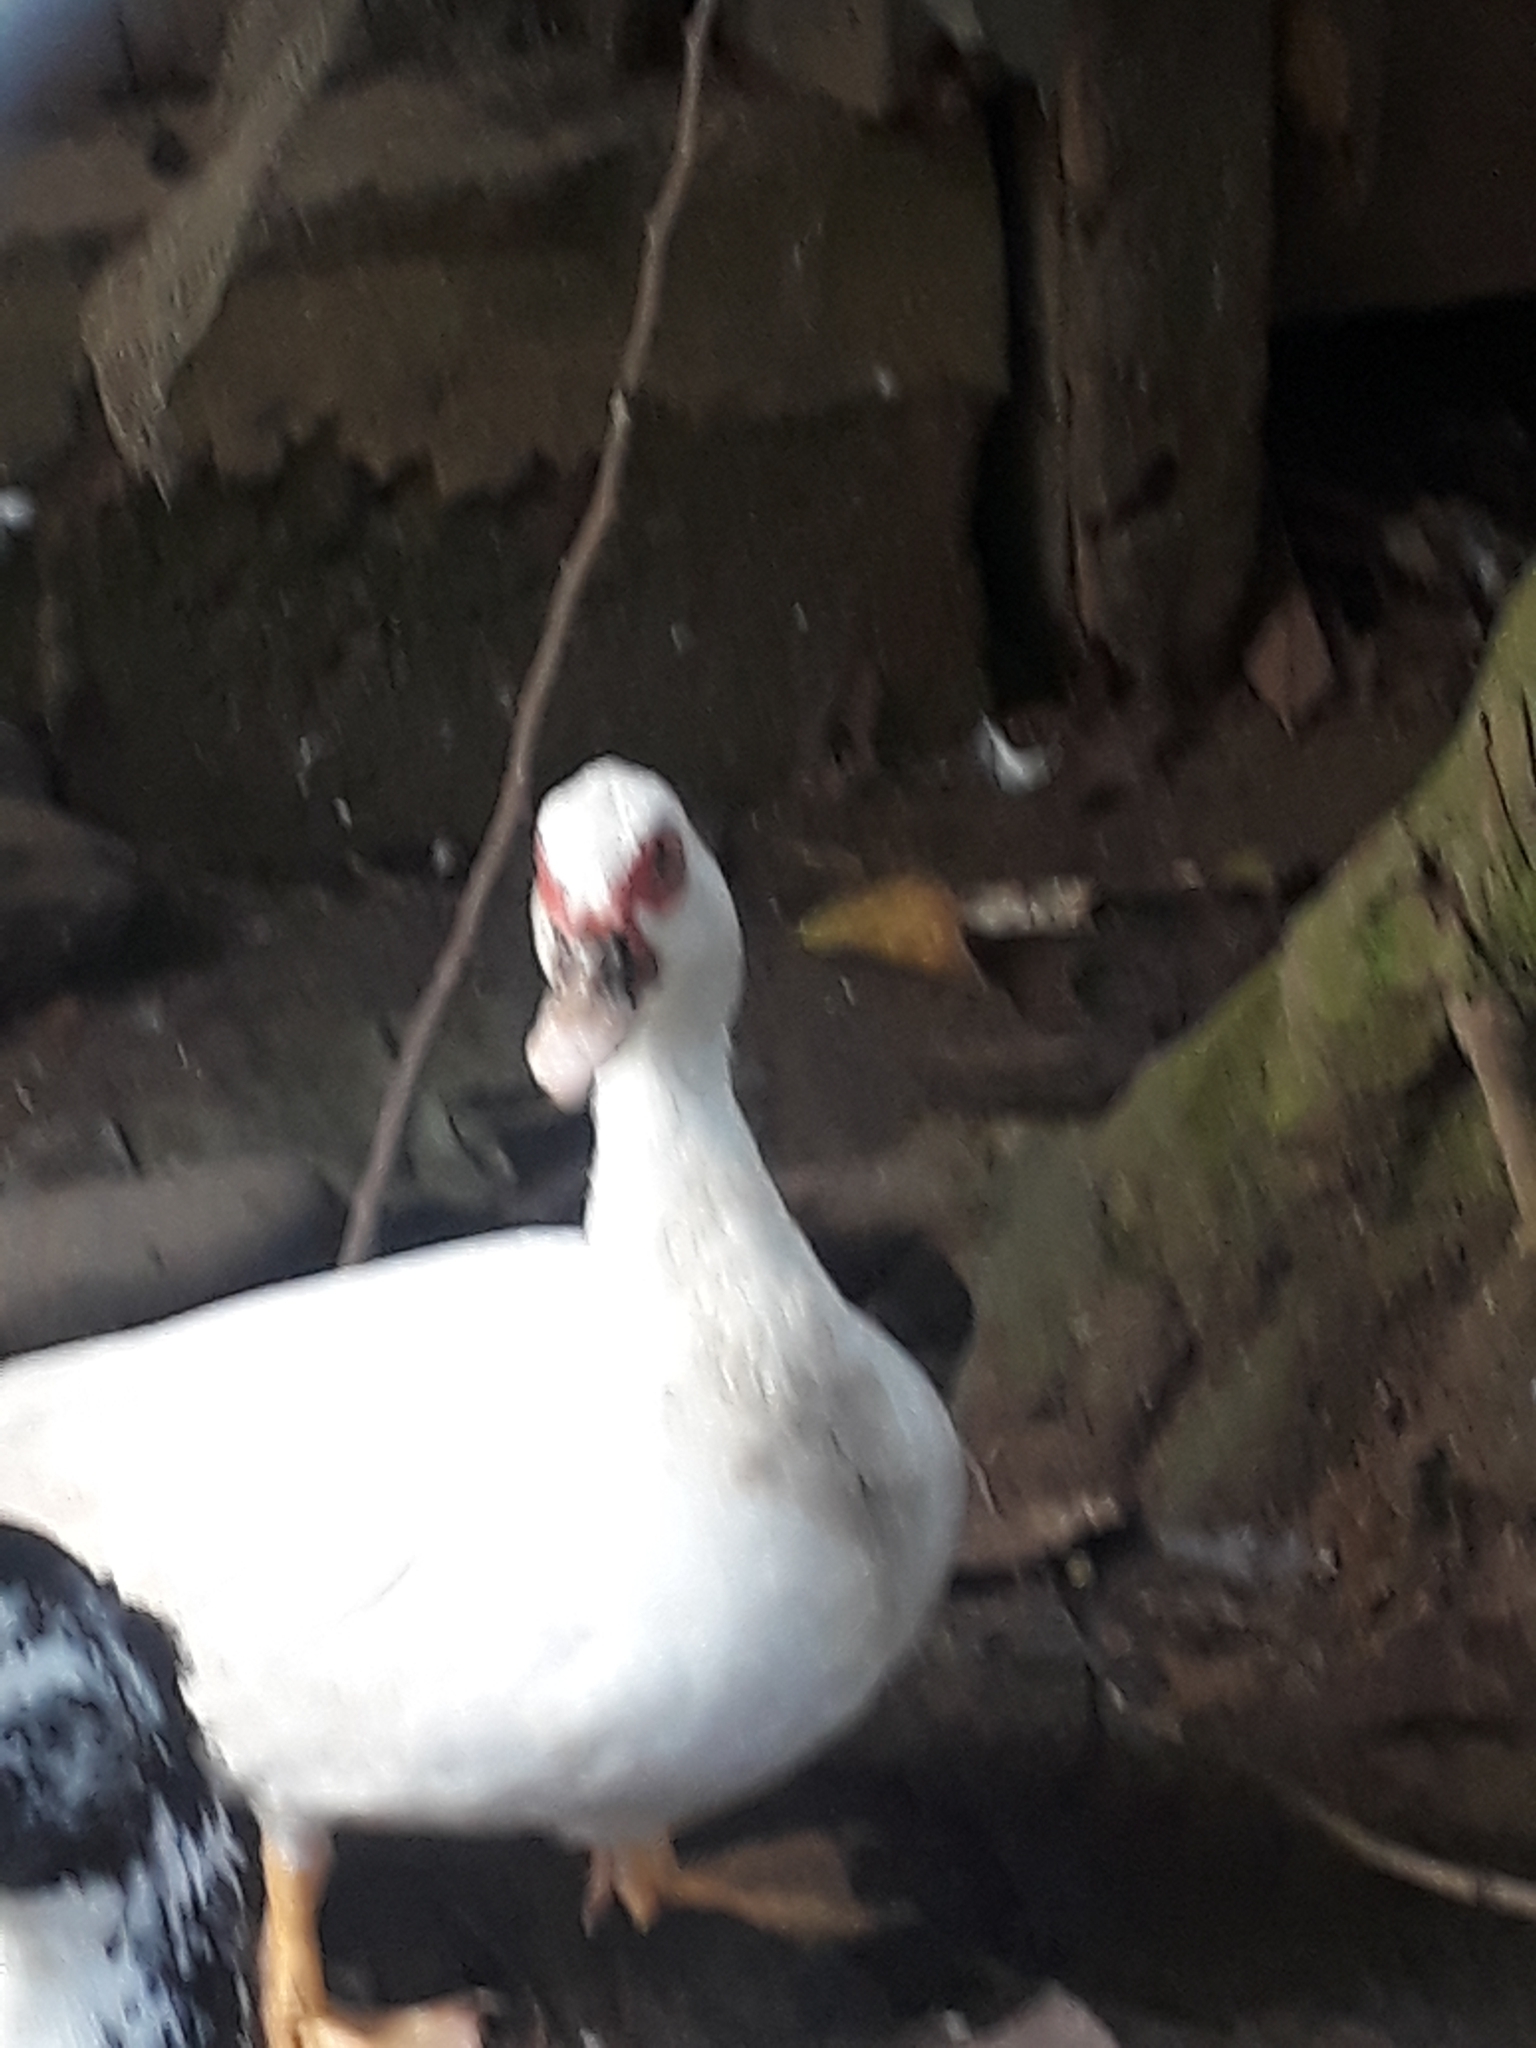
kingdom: Animalia
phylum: Chordata
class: Aves
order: Anseriformes
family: Anatidae
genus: Cairina
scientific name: Cairina moschata
